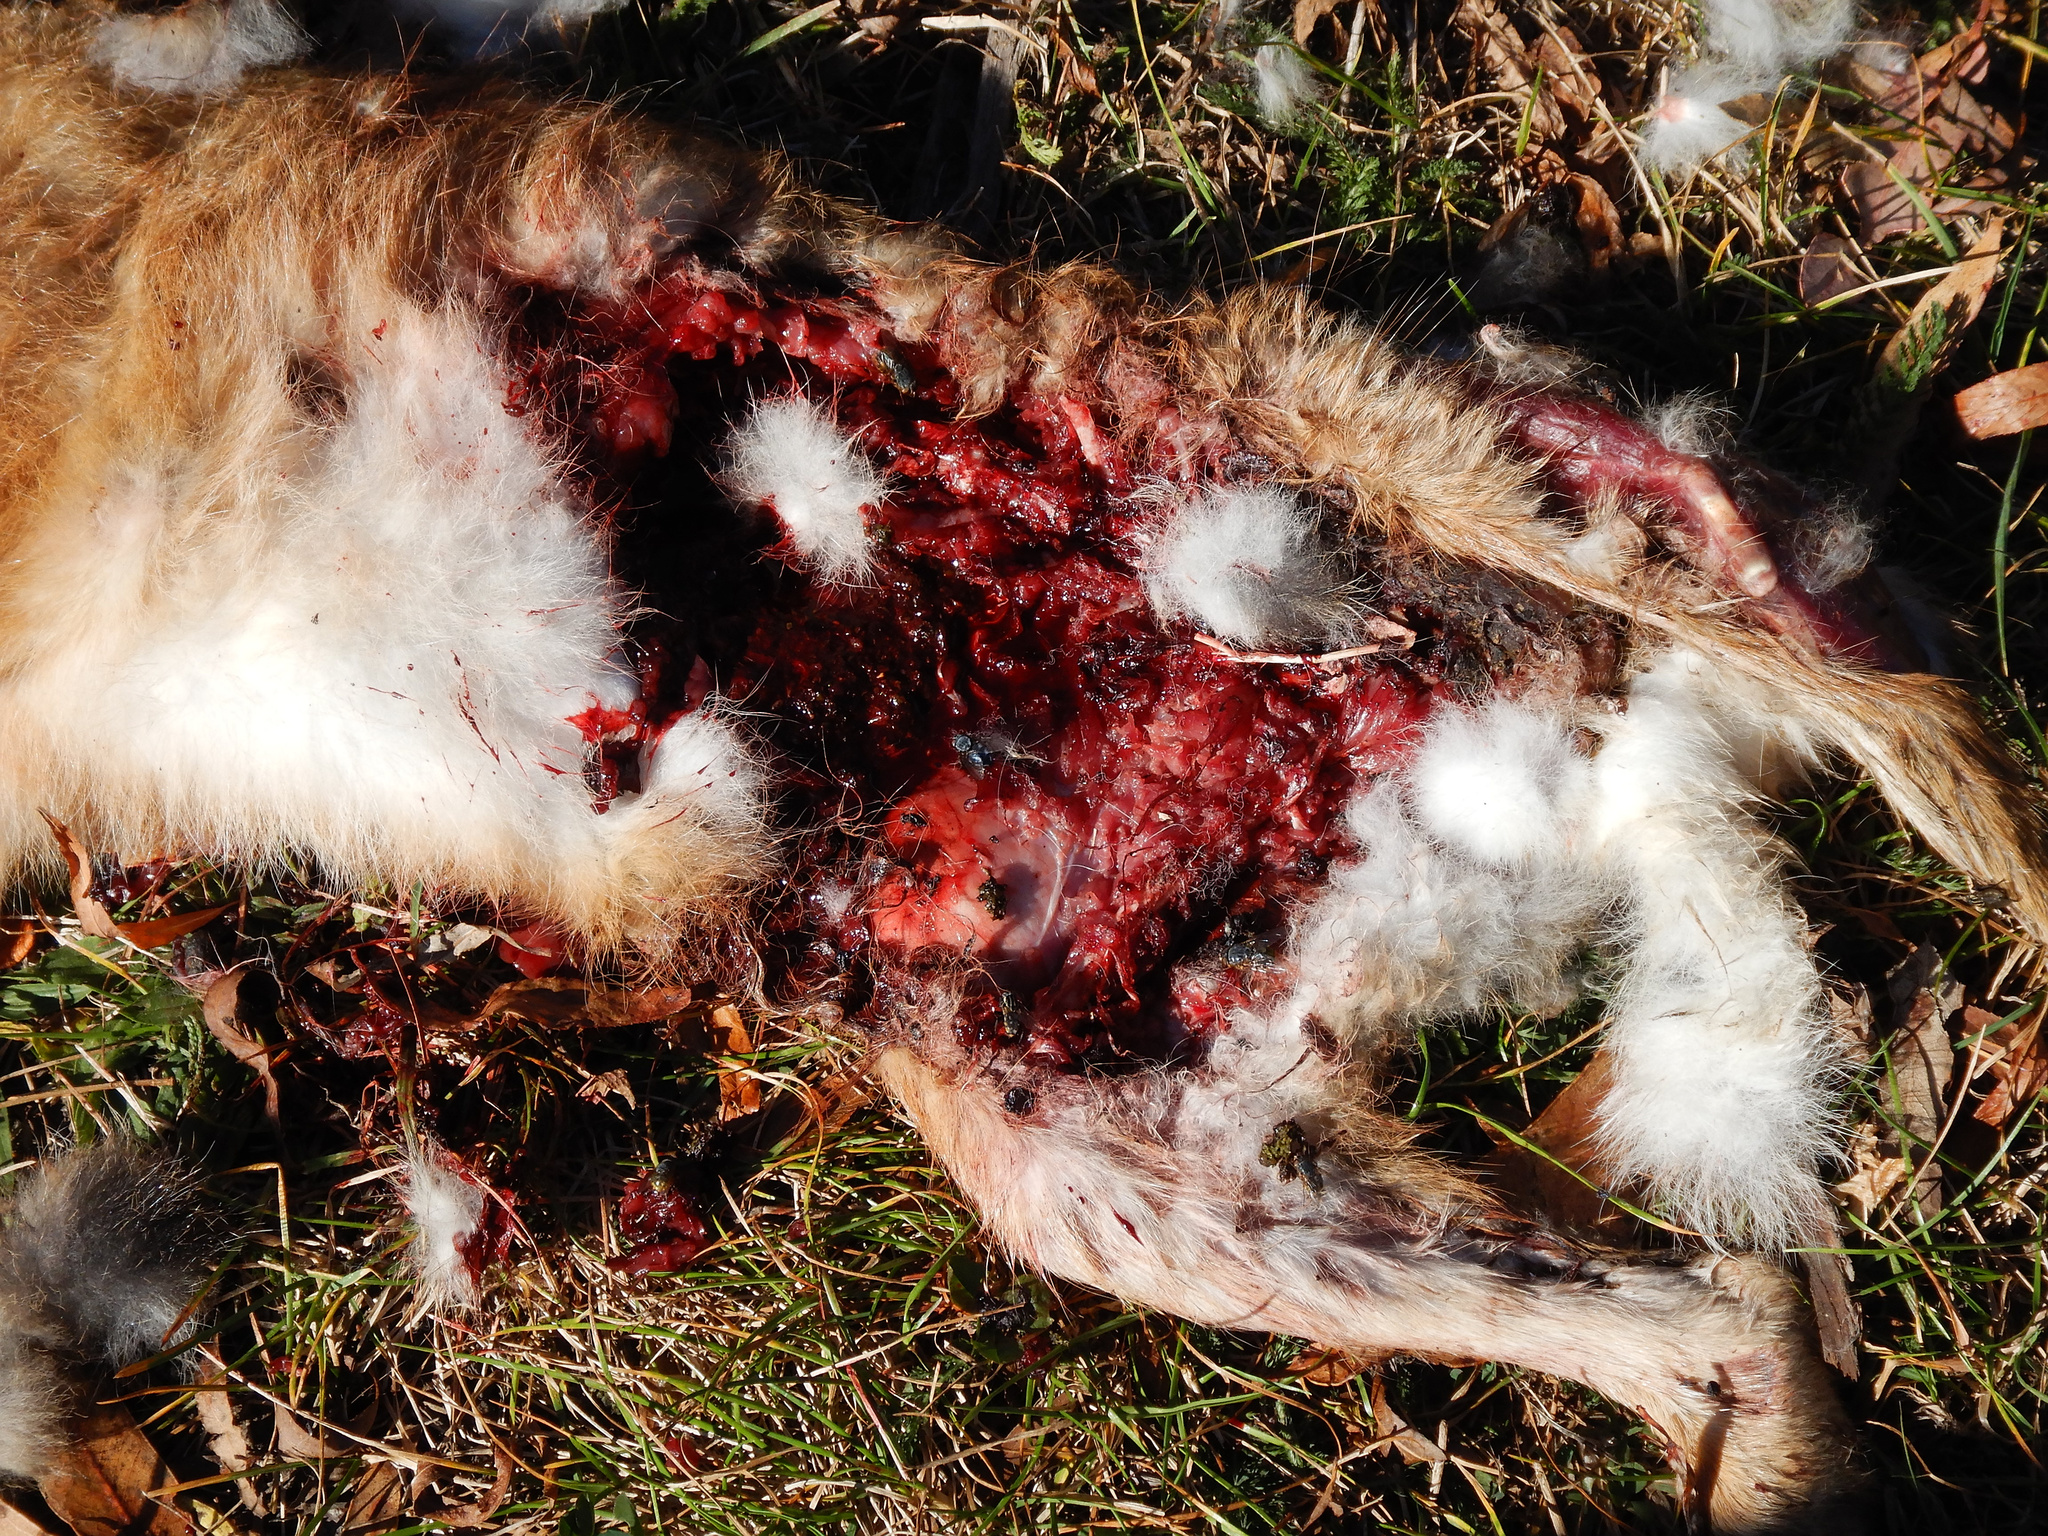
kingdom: Animalia
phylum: Arthropoda
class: Insecta
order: Diptera
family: Calliphoridae
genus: Calliphora
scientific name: Calliphora vicina
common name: Common blow flie
